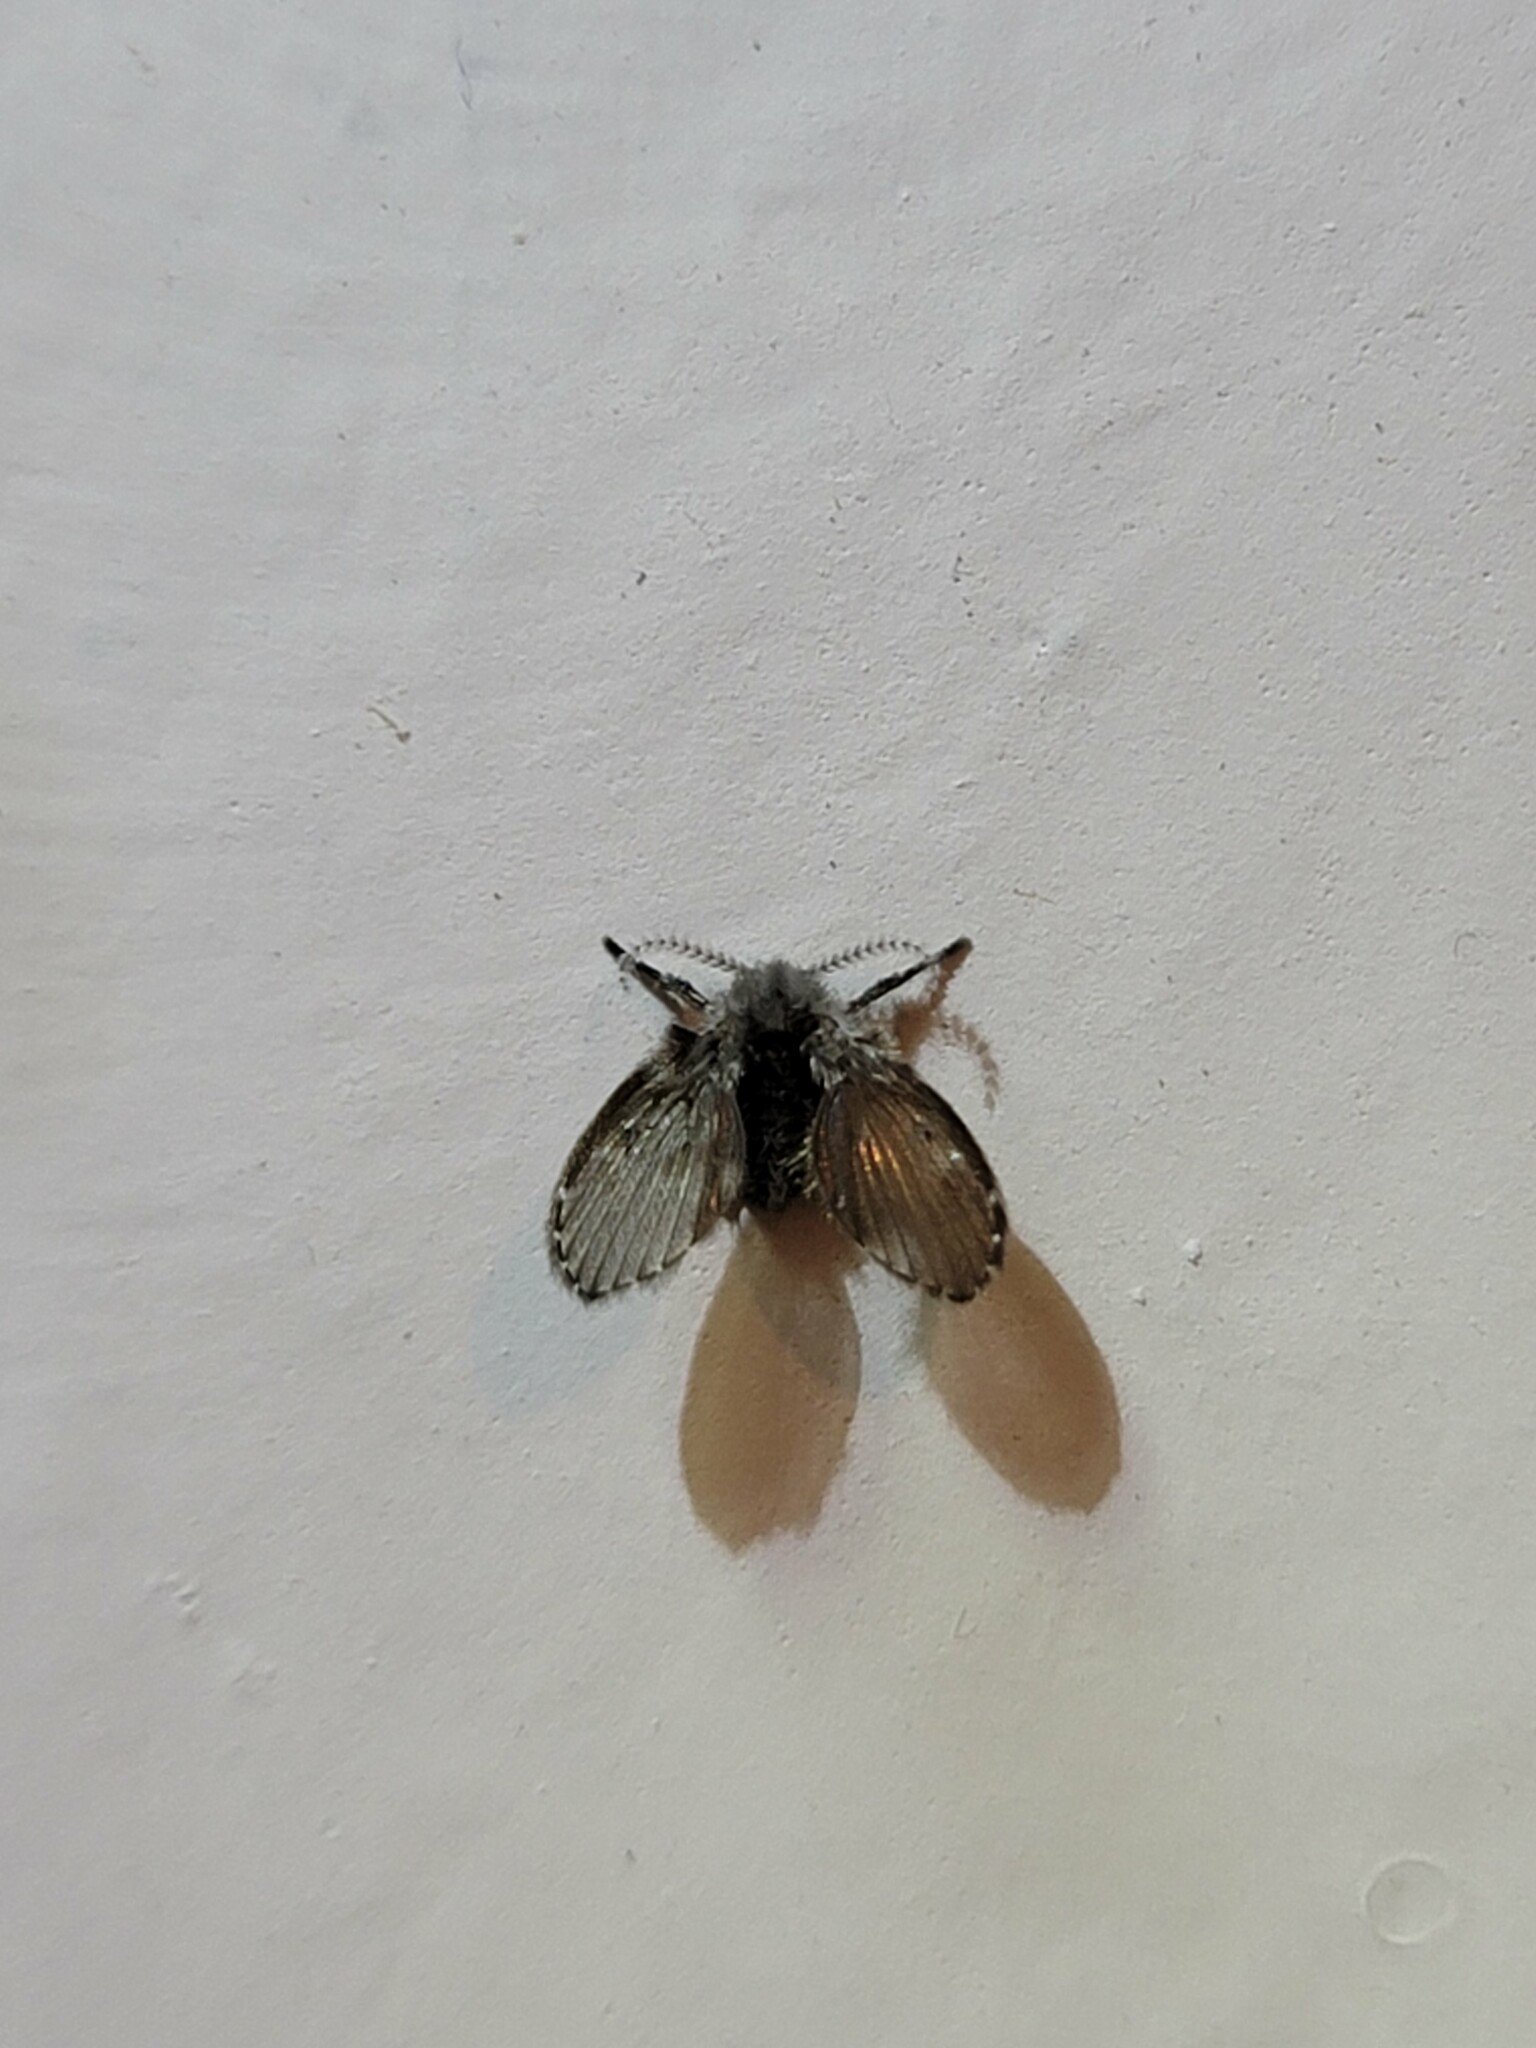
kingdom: Animalia
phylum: Arthropoda
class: Insecta
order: Diptera
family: Psychodidae
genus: Clogmia
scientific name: Clogmia albipunctatus
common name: White-spotted moth fly
